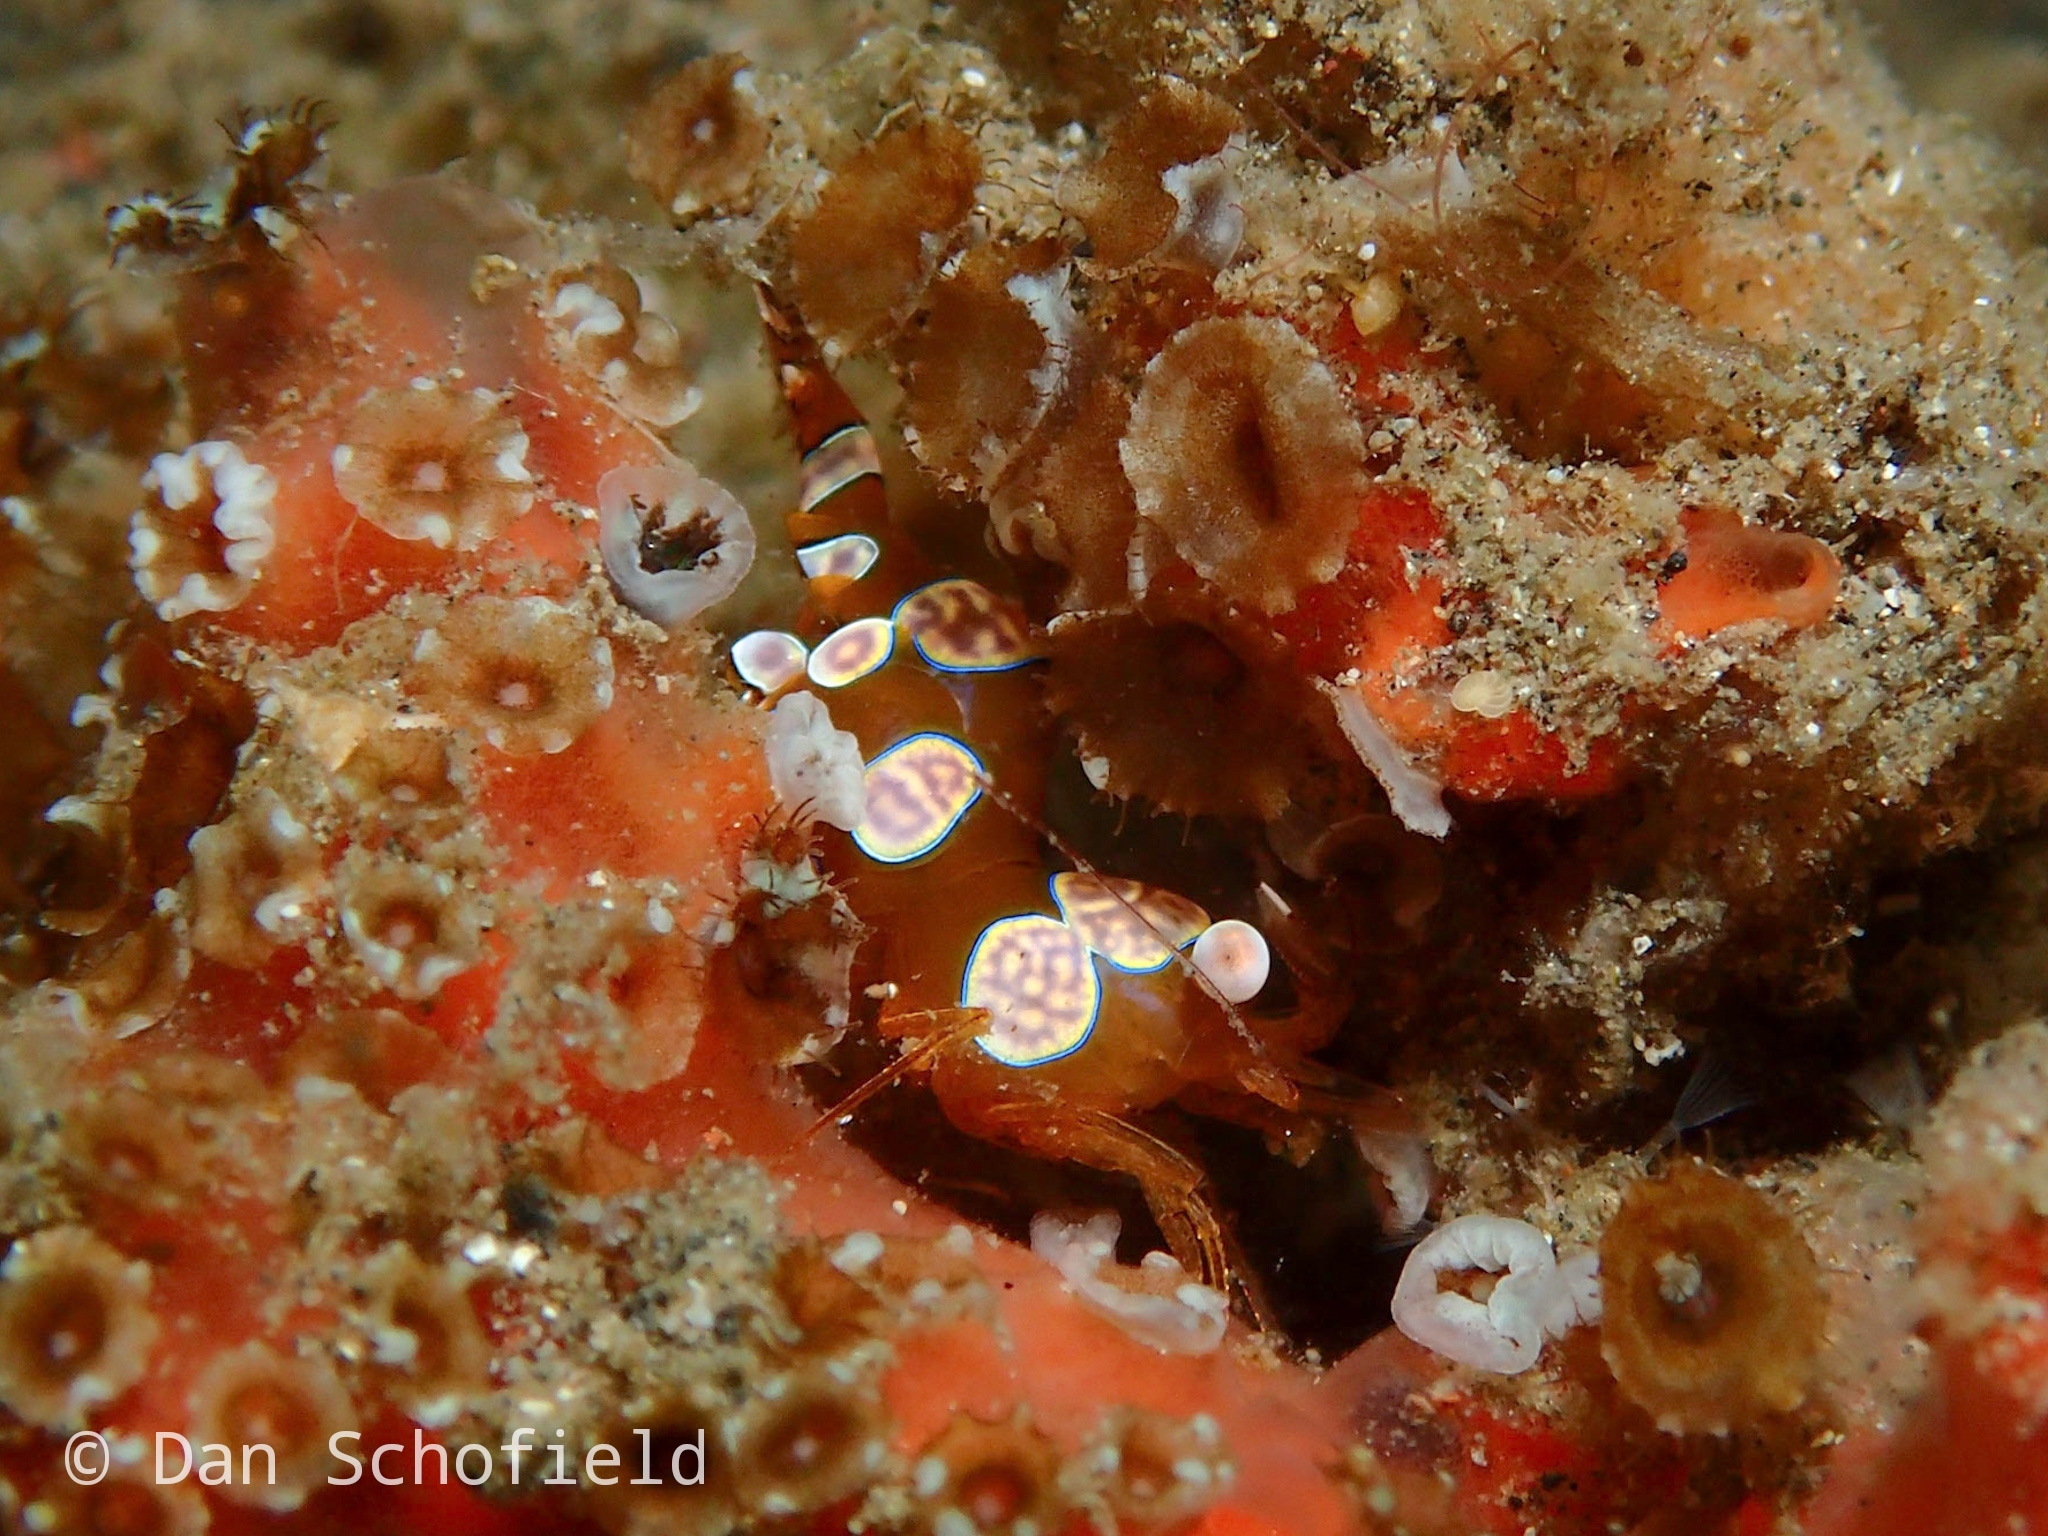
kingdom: Animalia
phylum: Arthropoda
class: Malacostraca
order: Decapoda
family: Thoridae
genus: Thor
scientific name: Thor amboinensis
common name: Squat anemone shrimp
